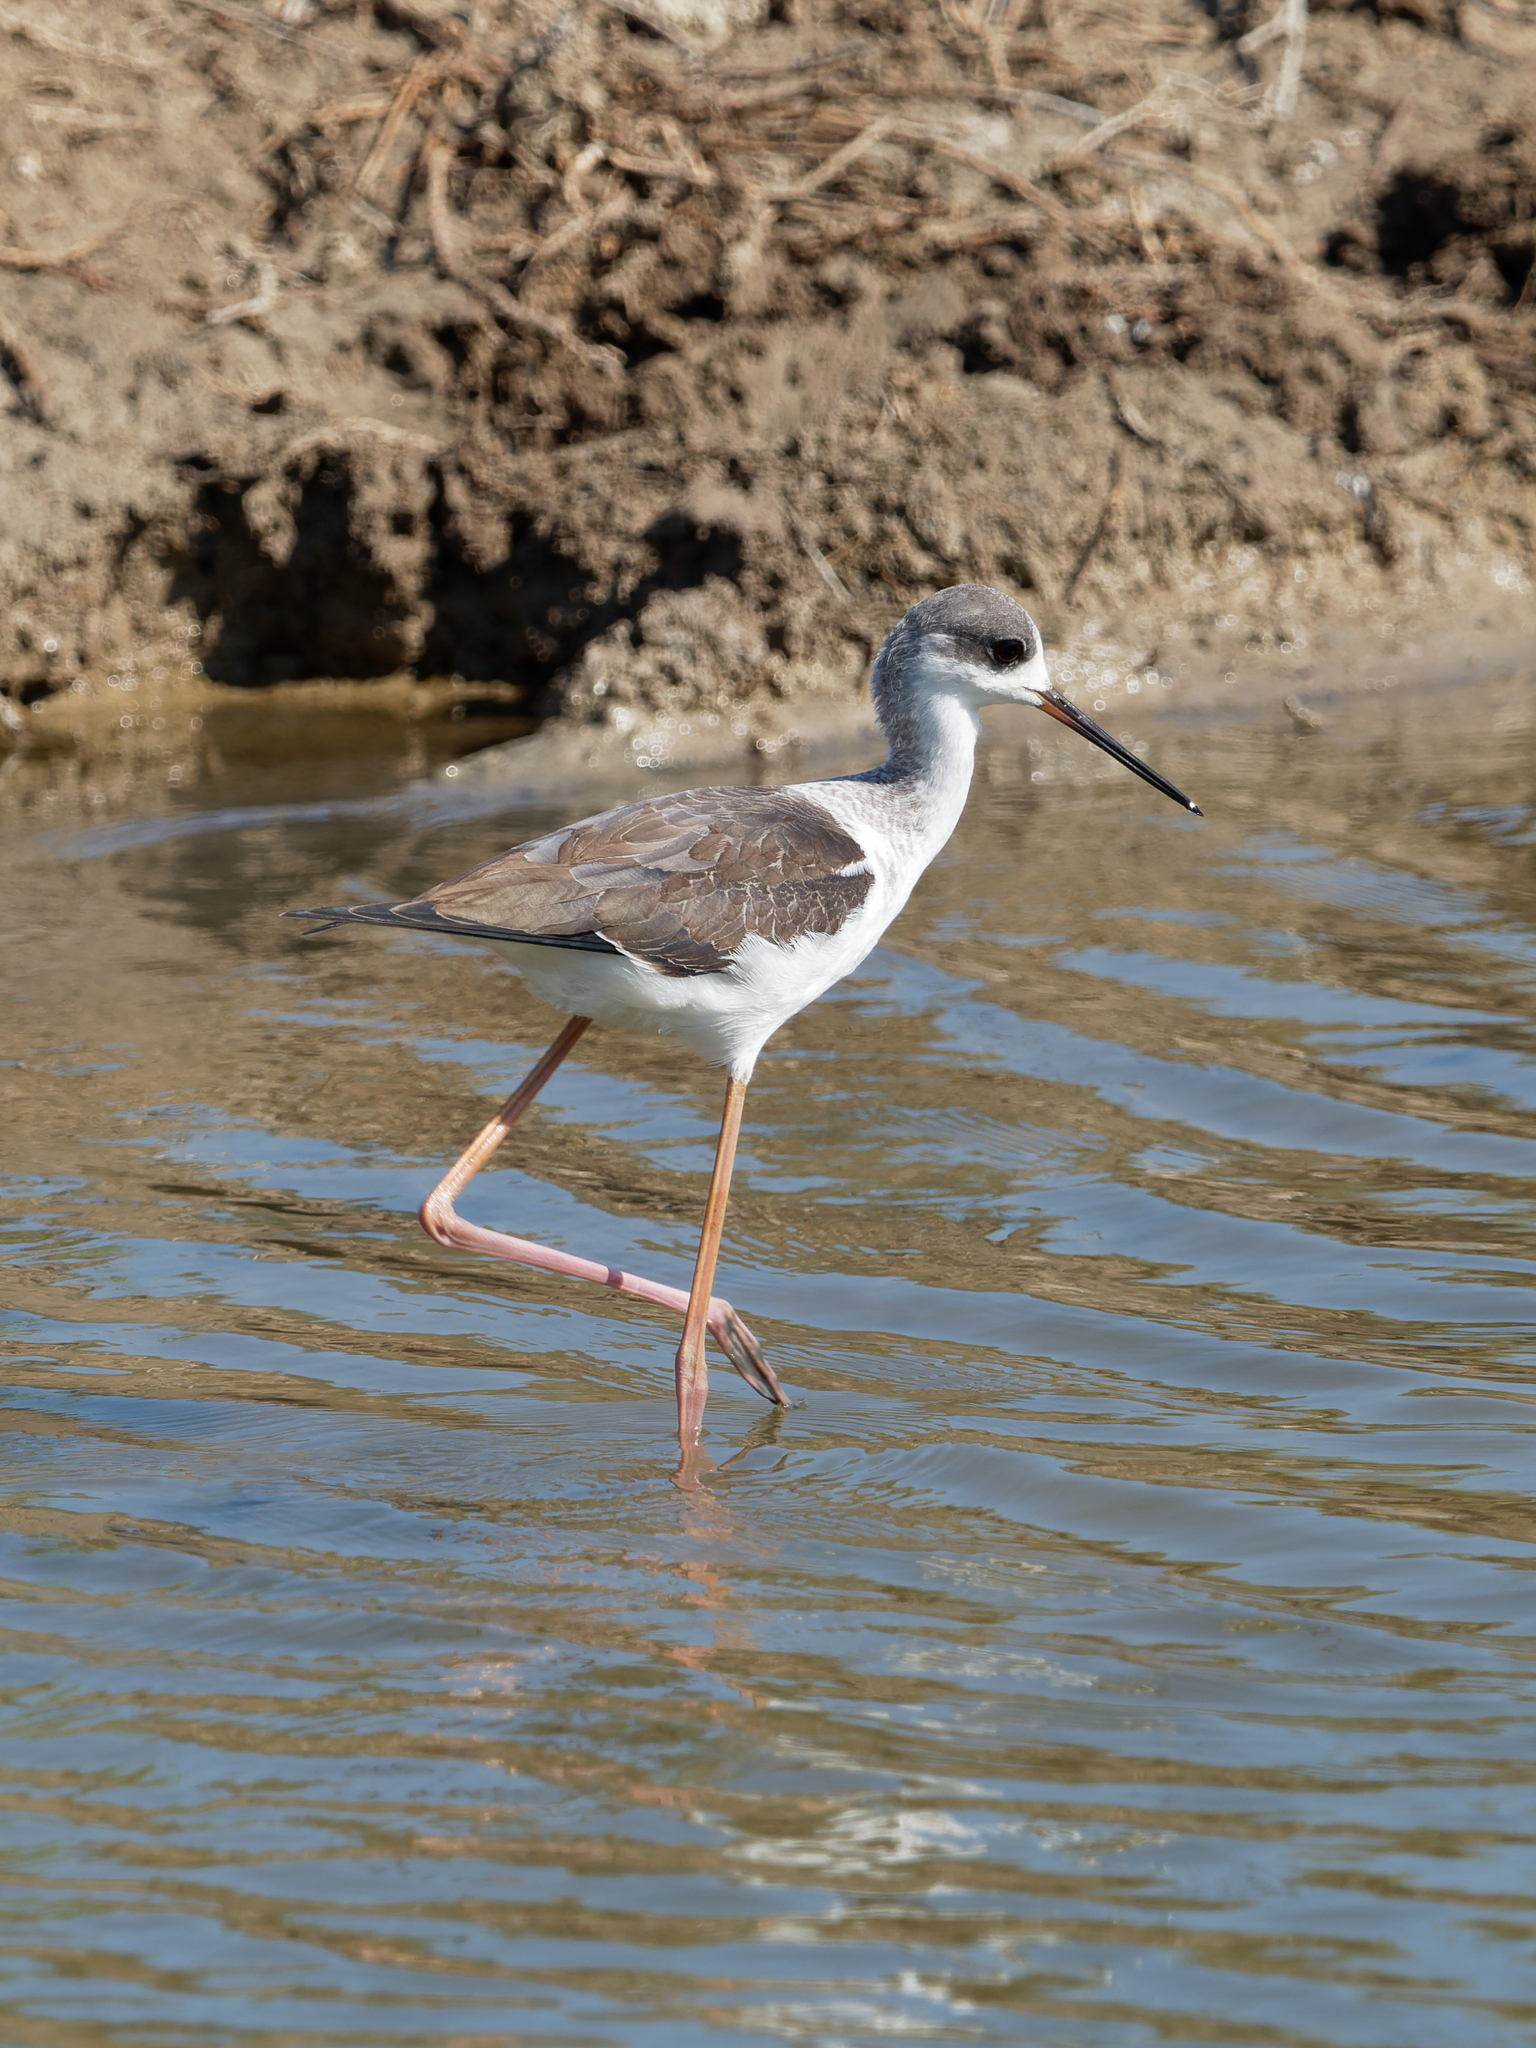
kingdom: Animalia
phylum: Chordata
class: Aves
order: Charadriiformes
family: Recurvirostridae
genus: Himantopus
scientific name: Himantopus himantopus
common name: Black-winged stilt
